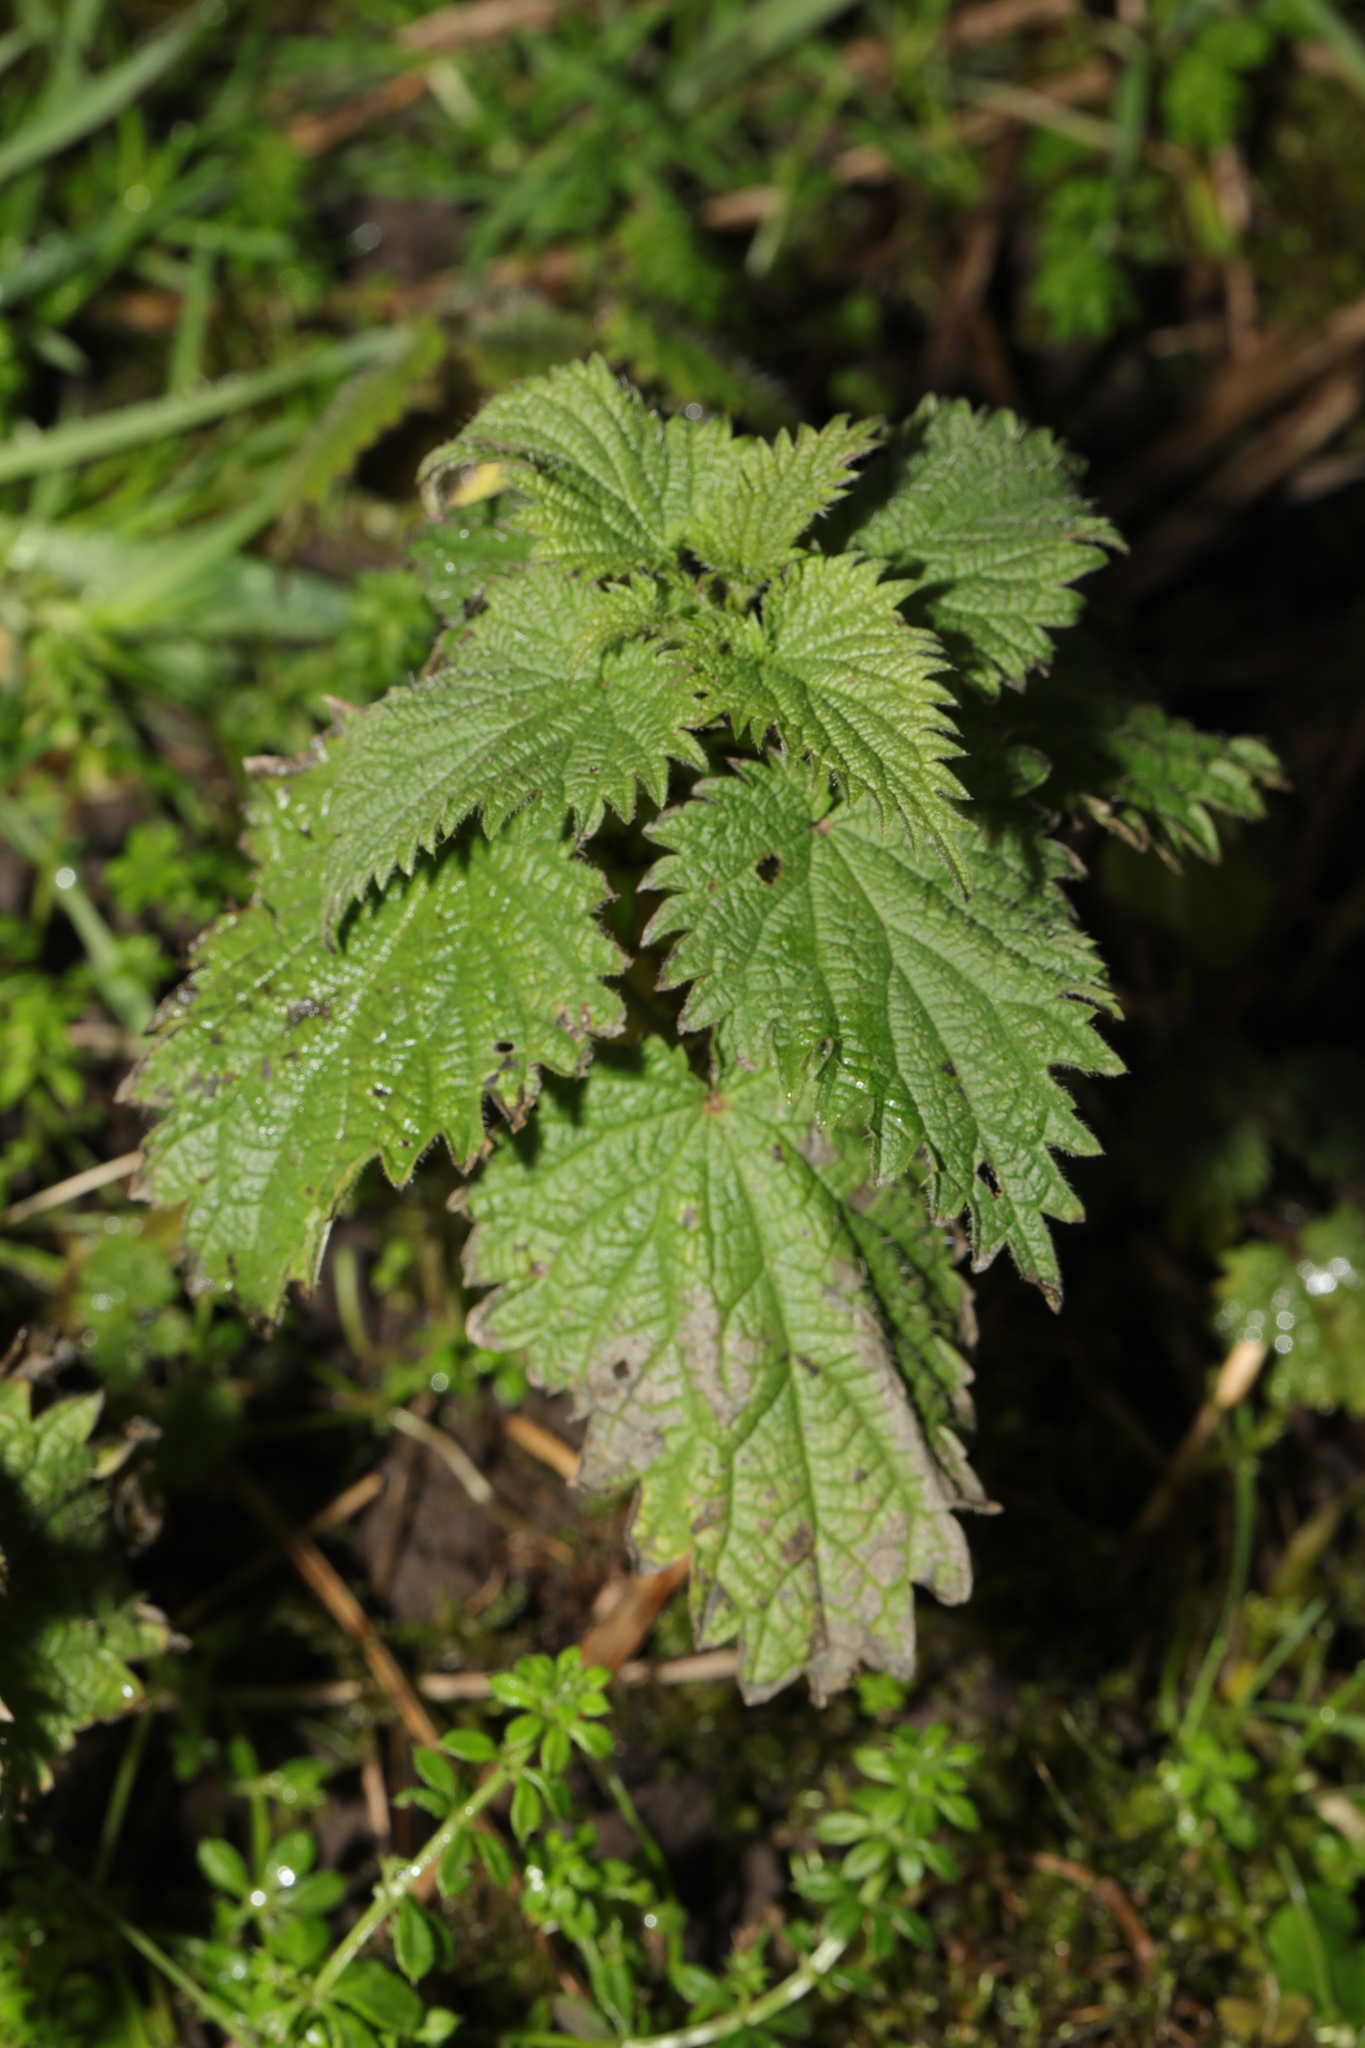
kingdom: Plantae
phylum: Tracheophyta
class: Magnoliopsida
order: Rosales
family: Urticaceae
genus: Urtica
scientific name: Urtica dioica
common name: Common nettle
